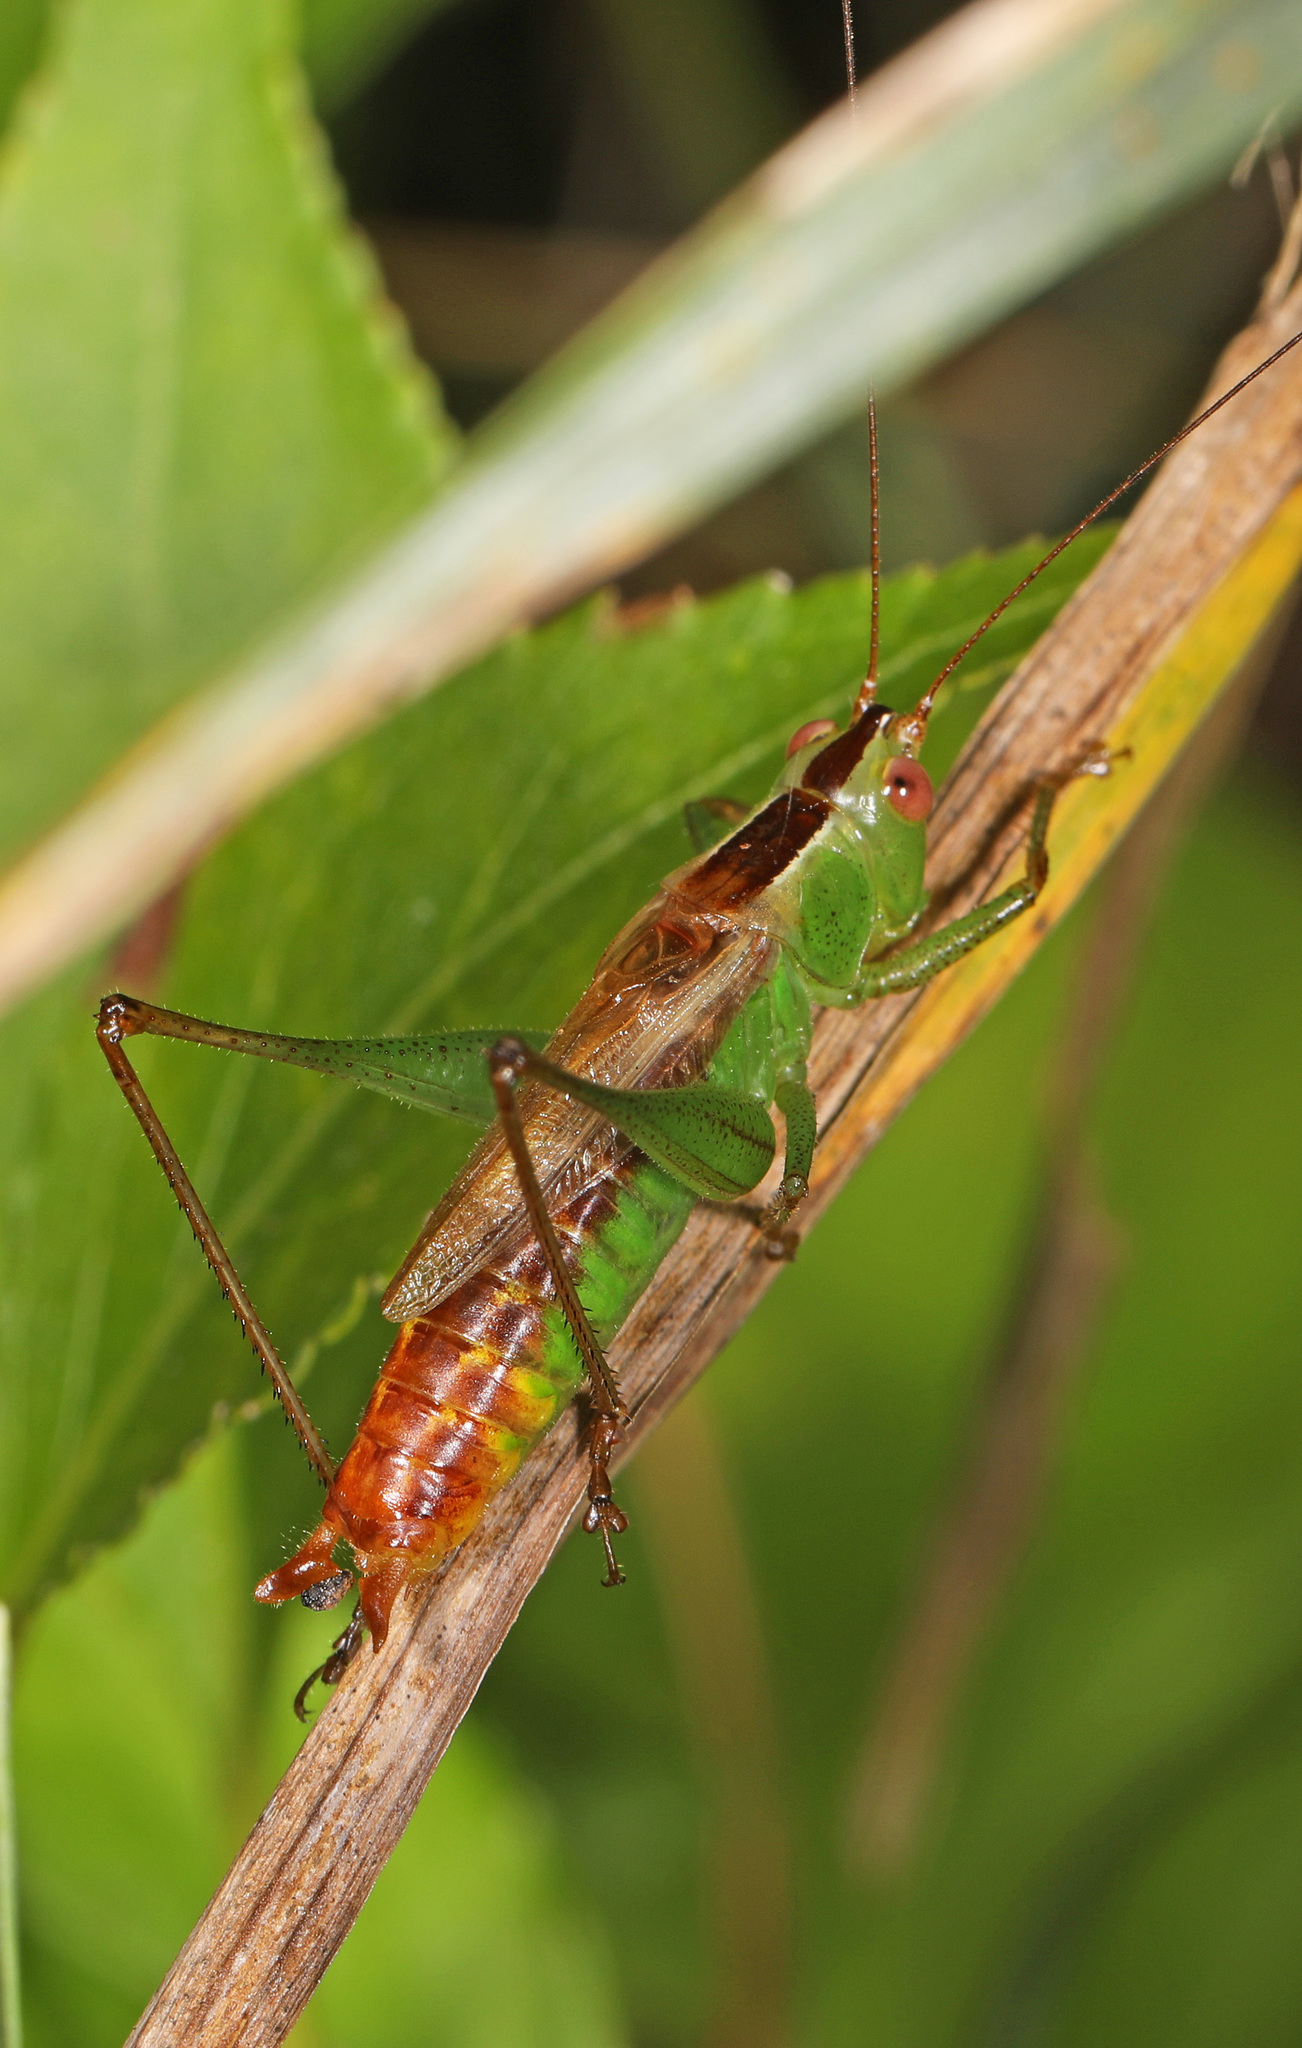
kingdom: Animalia
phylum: Arthropoda
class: Insecta
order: Orthoptera
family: Tettigoniidae
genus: Conocephalus
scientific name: Conocephalus brevipennis
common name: Short-winged meadow katydid
